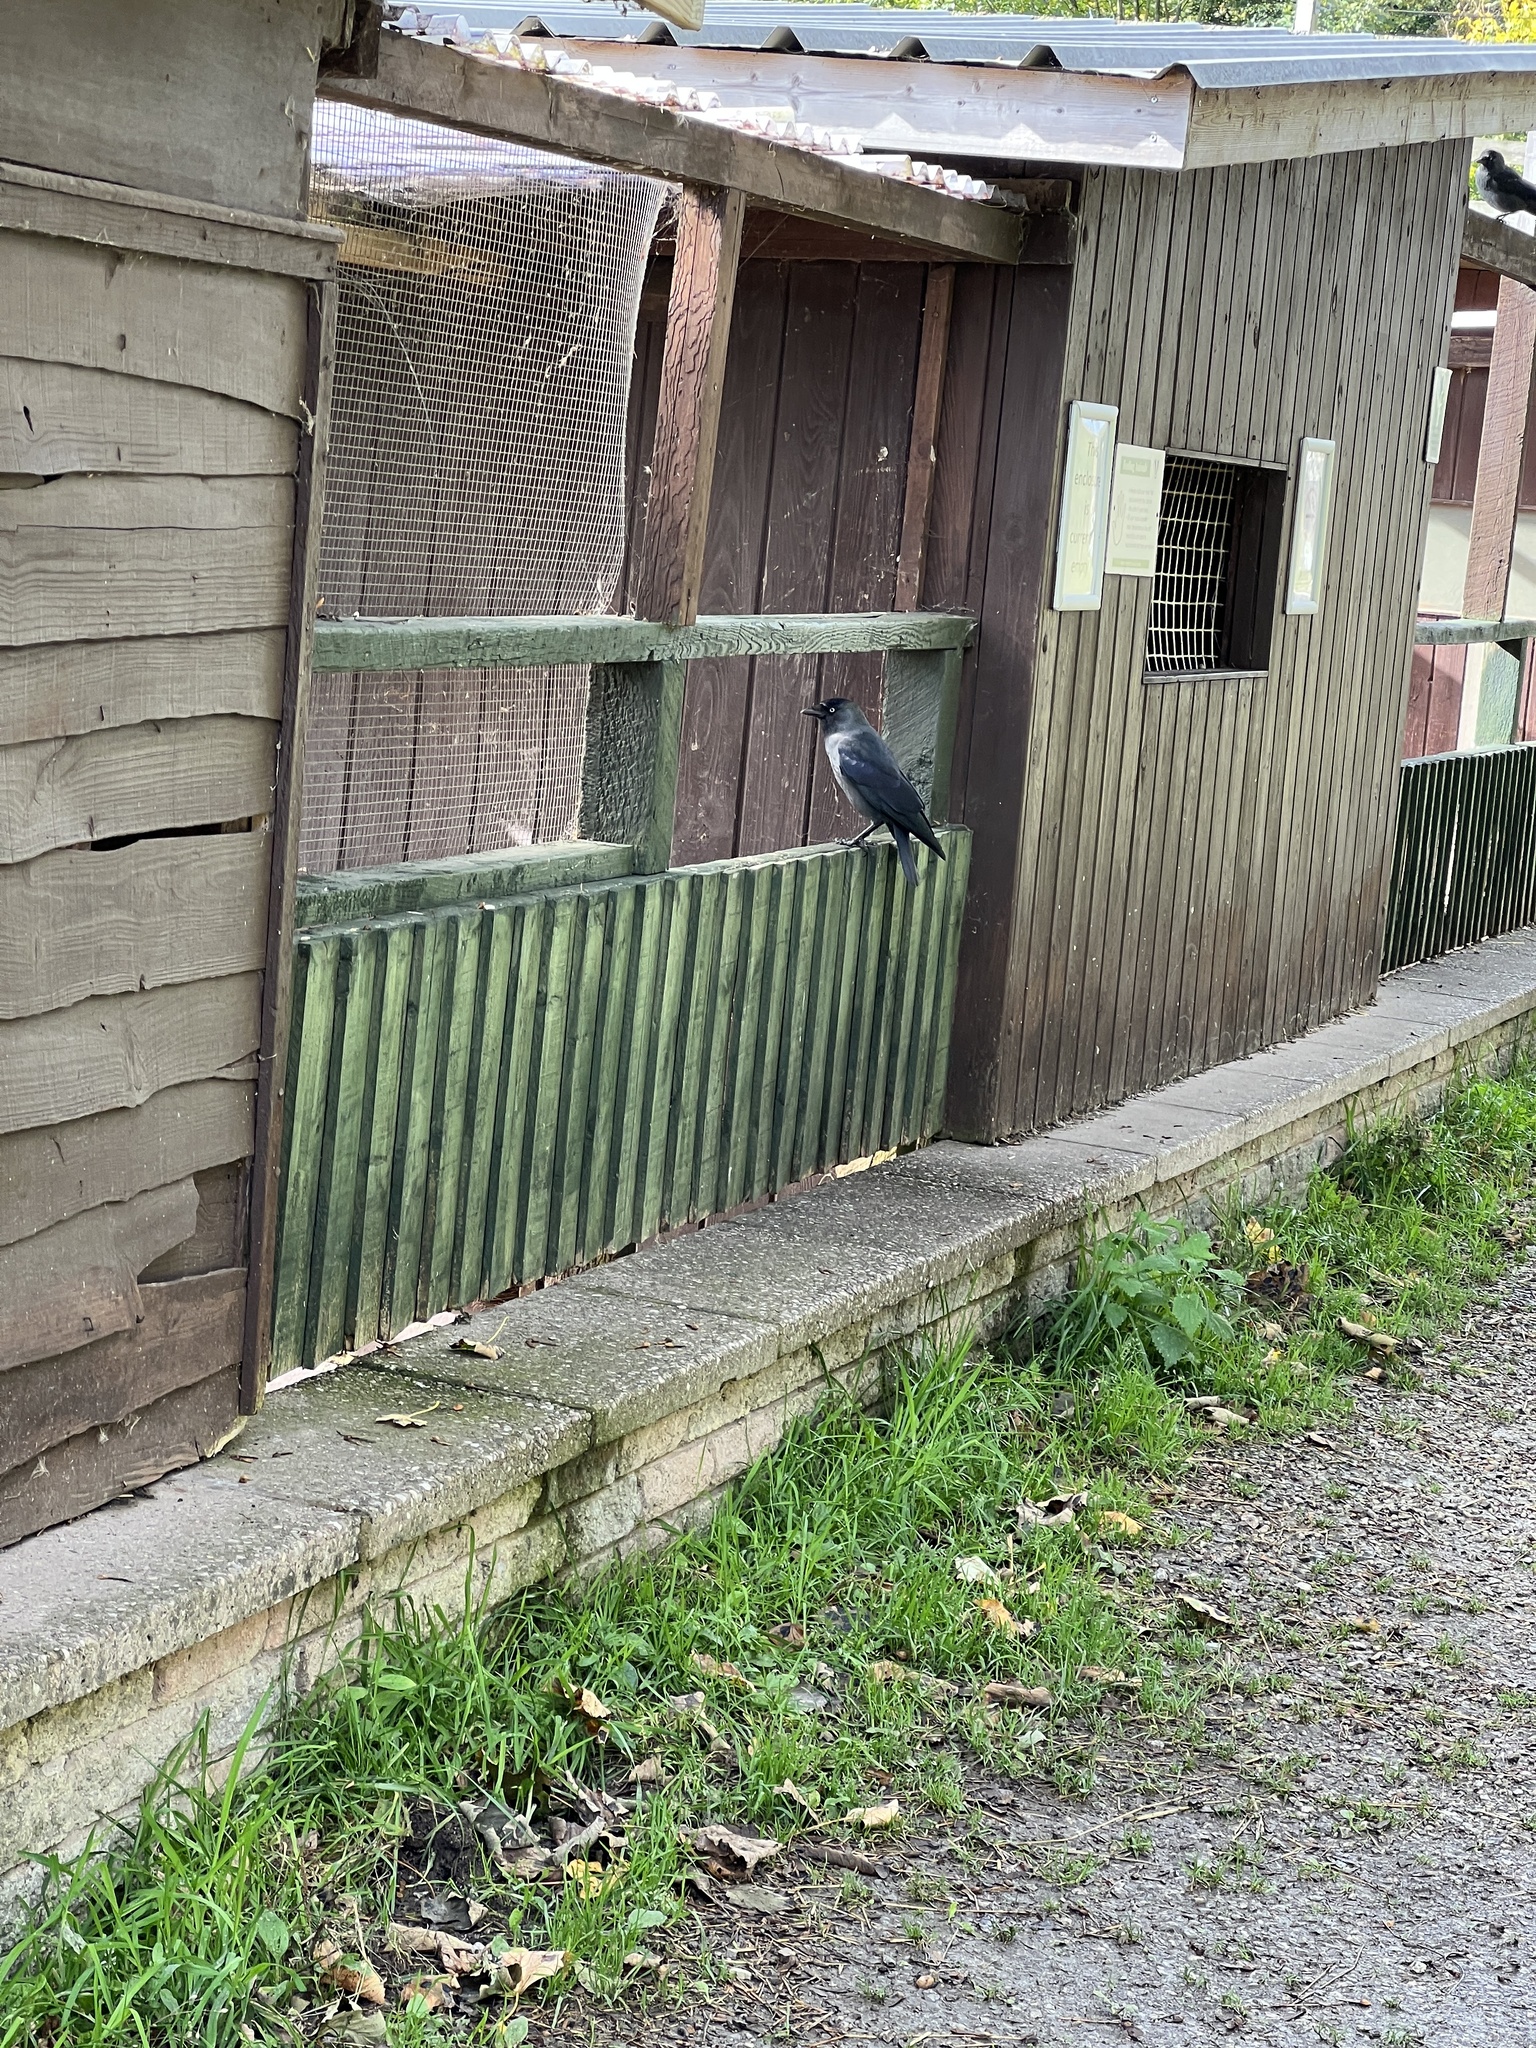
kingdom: Animalia
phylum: Chordata
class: Aves
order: Passeriformes
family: Corvidae
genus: Coloeus
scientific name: Coloeus monedula
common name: Western jackdaw
